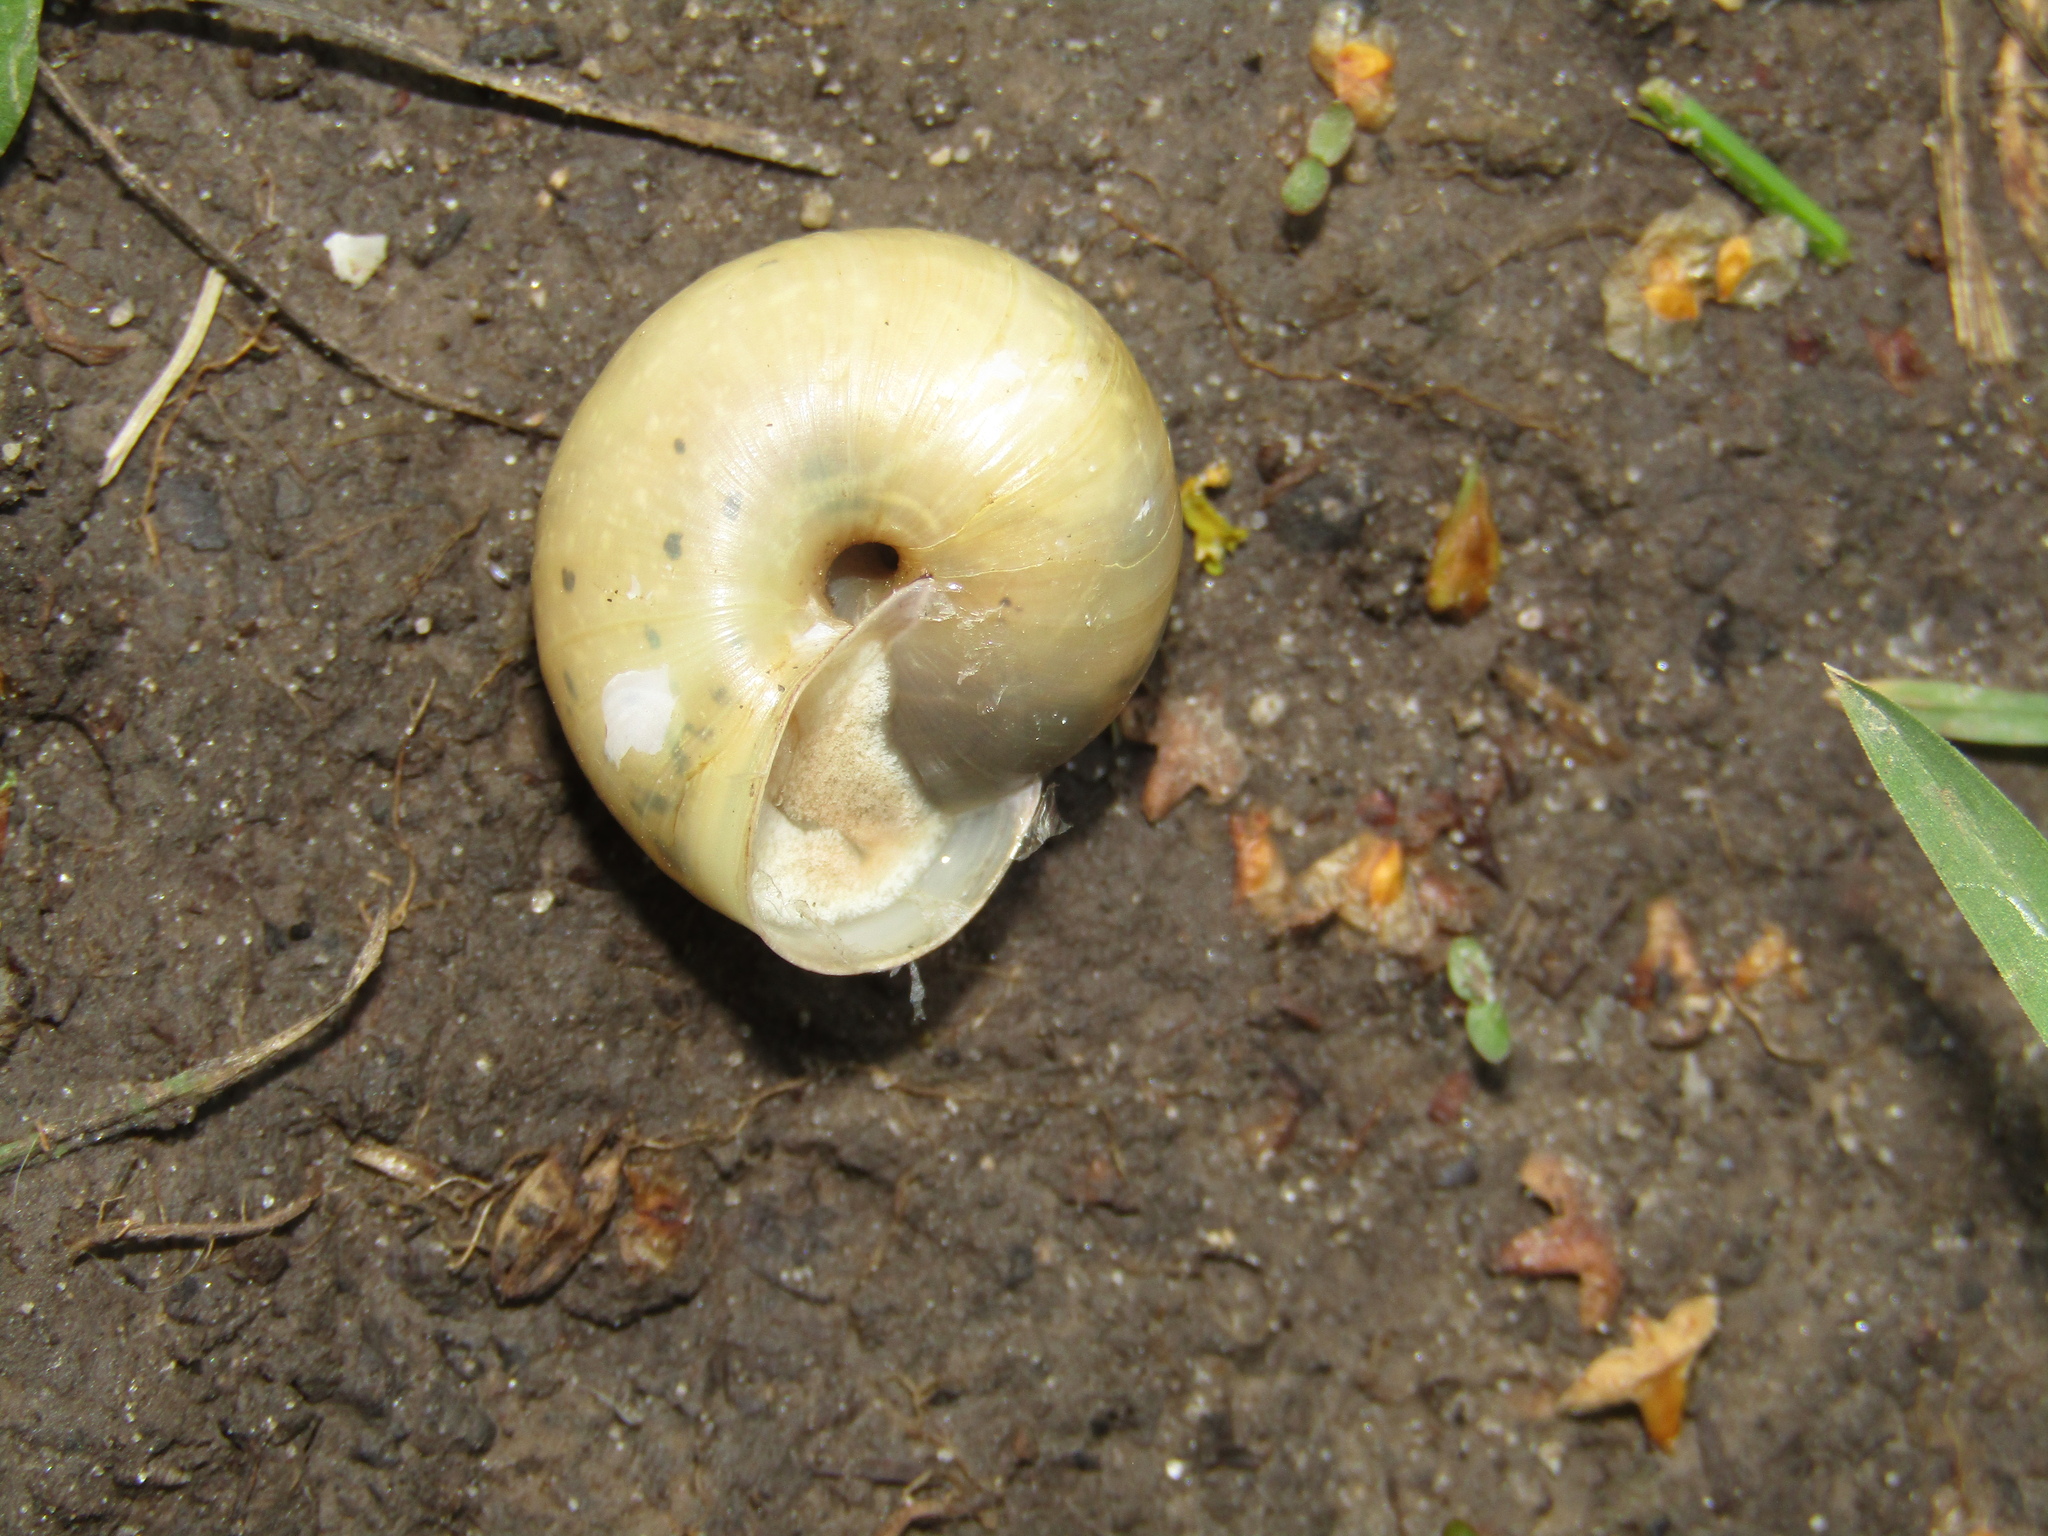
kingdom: Animalia
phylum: Mollusca
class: Gastropoda
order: Stylommatophora
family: Camaenidae
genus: Fruticicola
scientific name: Fruticicola fruticum
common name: Bush snail
